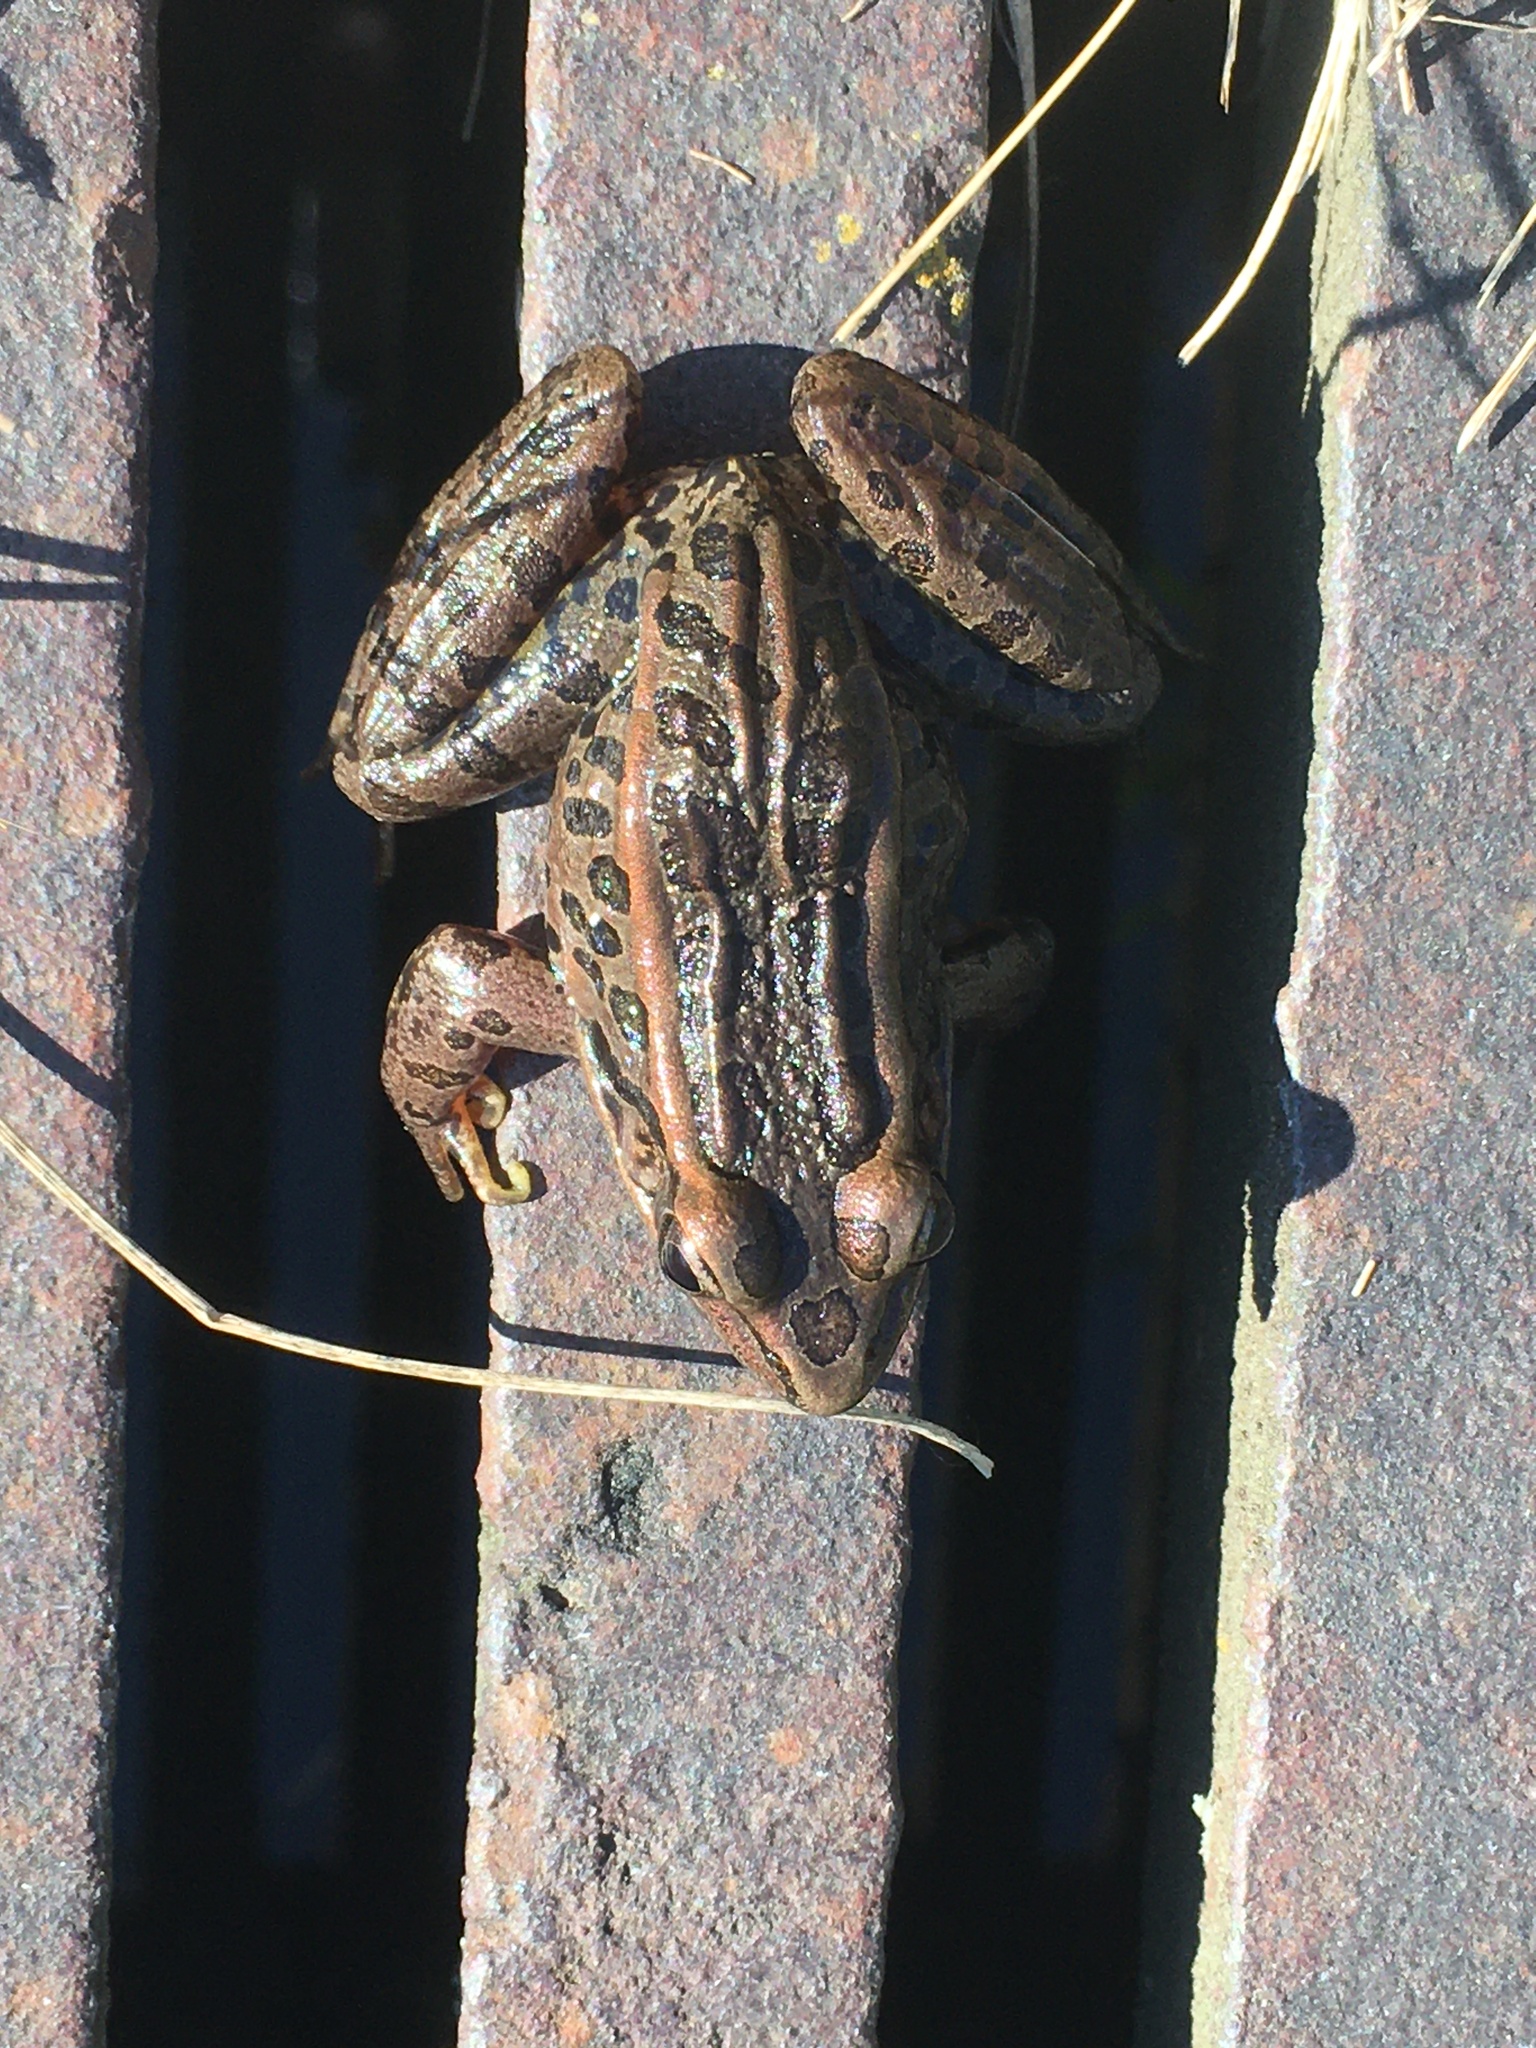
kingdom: Animalia
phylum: Chordata
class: Amphibia
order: Anura
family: Ranidae
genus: Lithobates
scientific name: Lithobates palustris
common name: Pickerel frog
